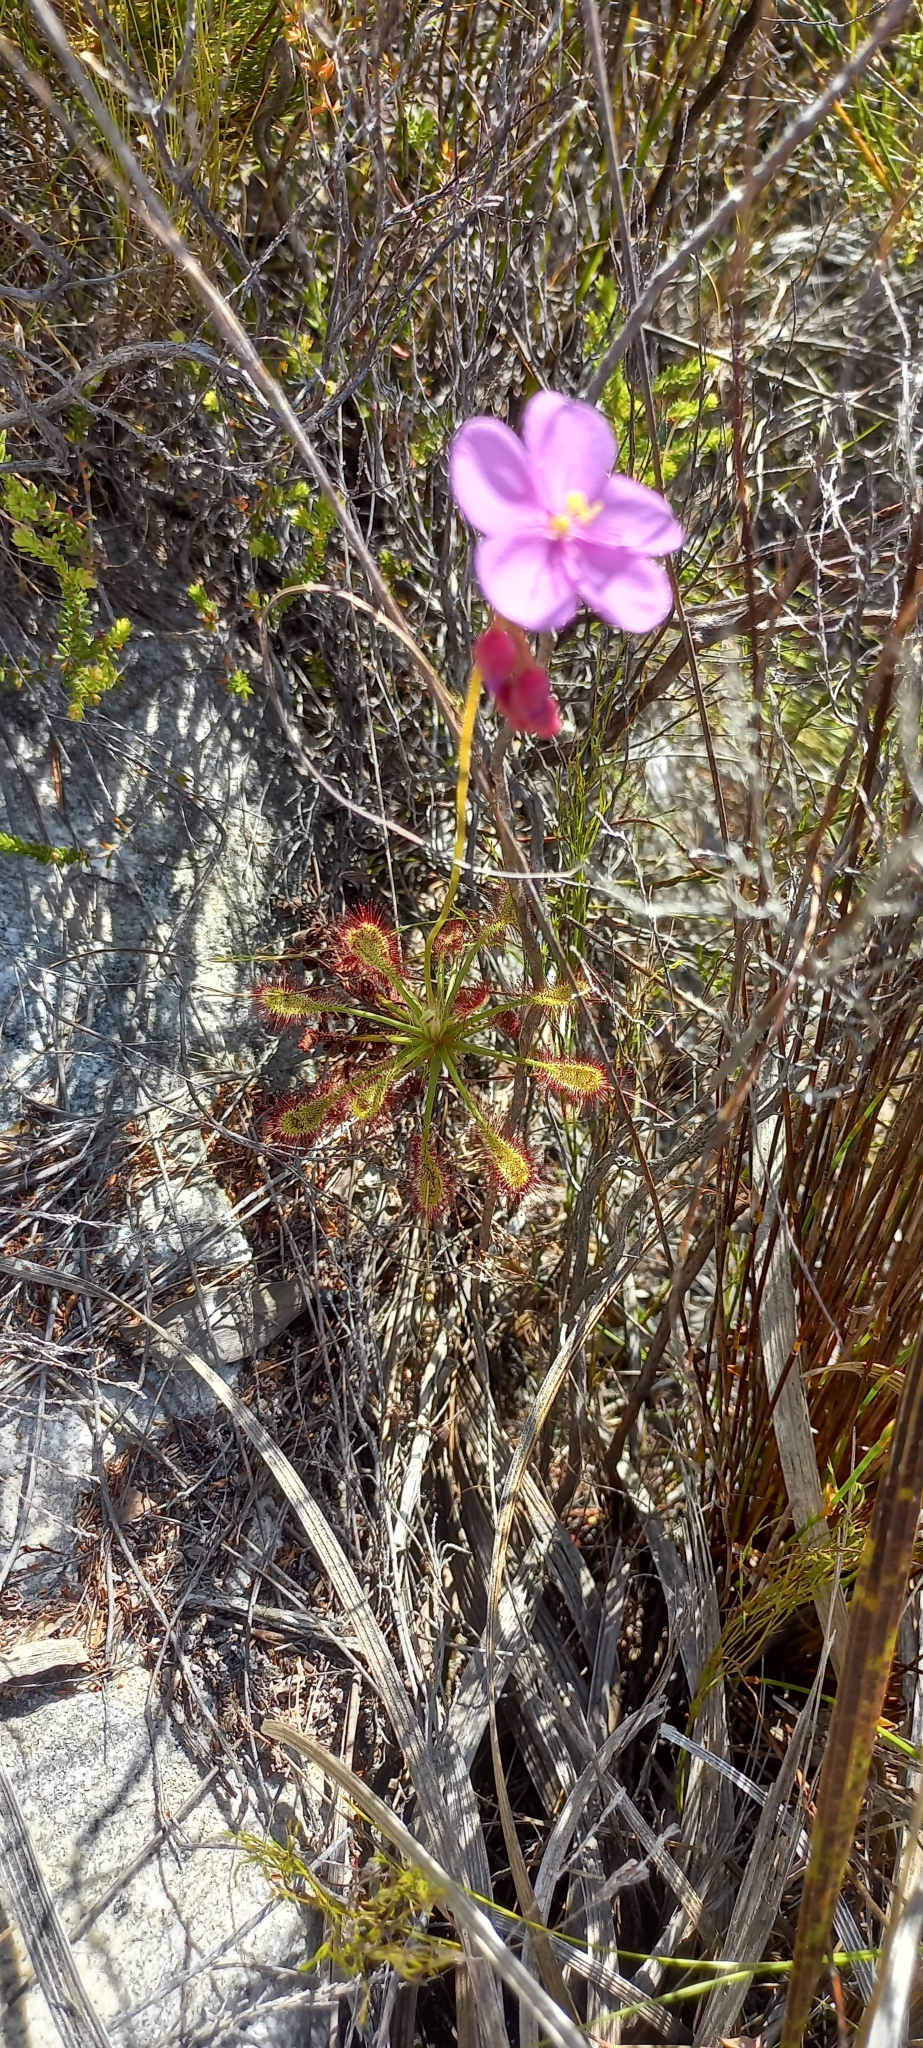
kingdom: Plantae
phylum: Tracheophyta
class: Magnoliopsida
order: Caryophyllales
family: Droseraceae
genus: Drosera
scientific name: Drosera glabripes
